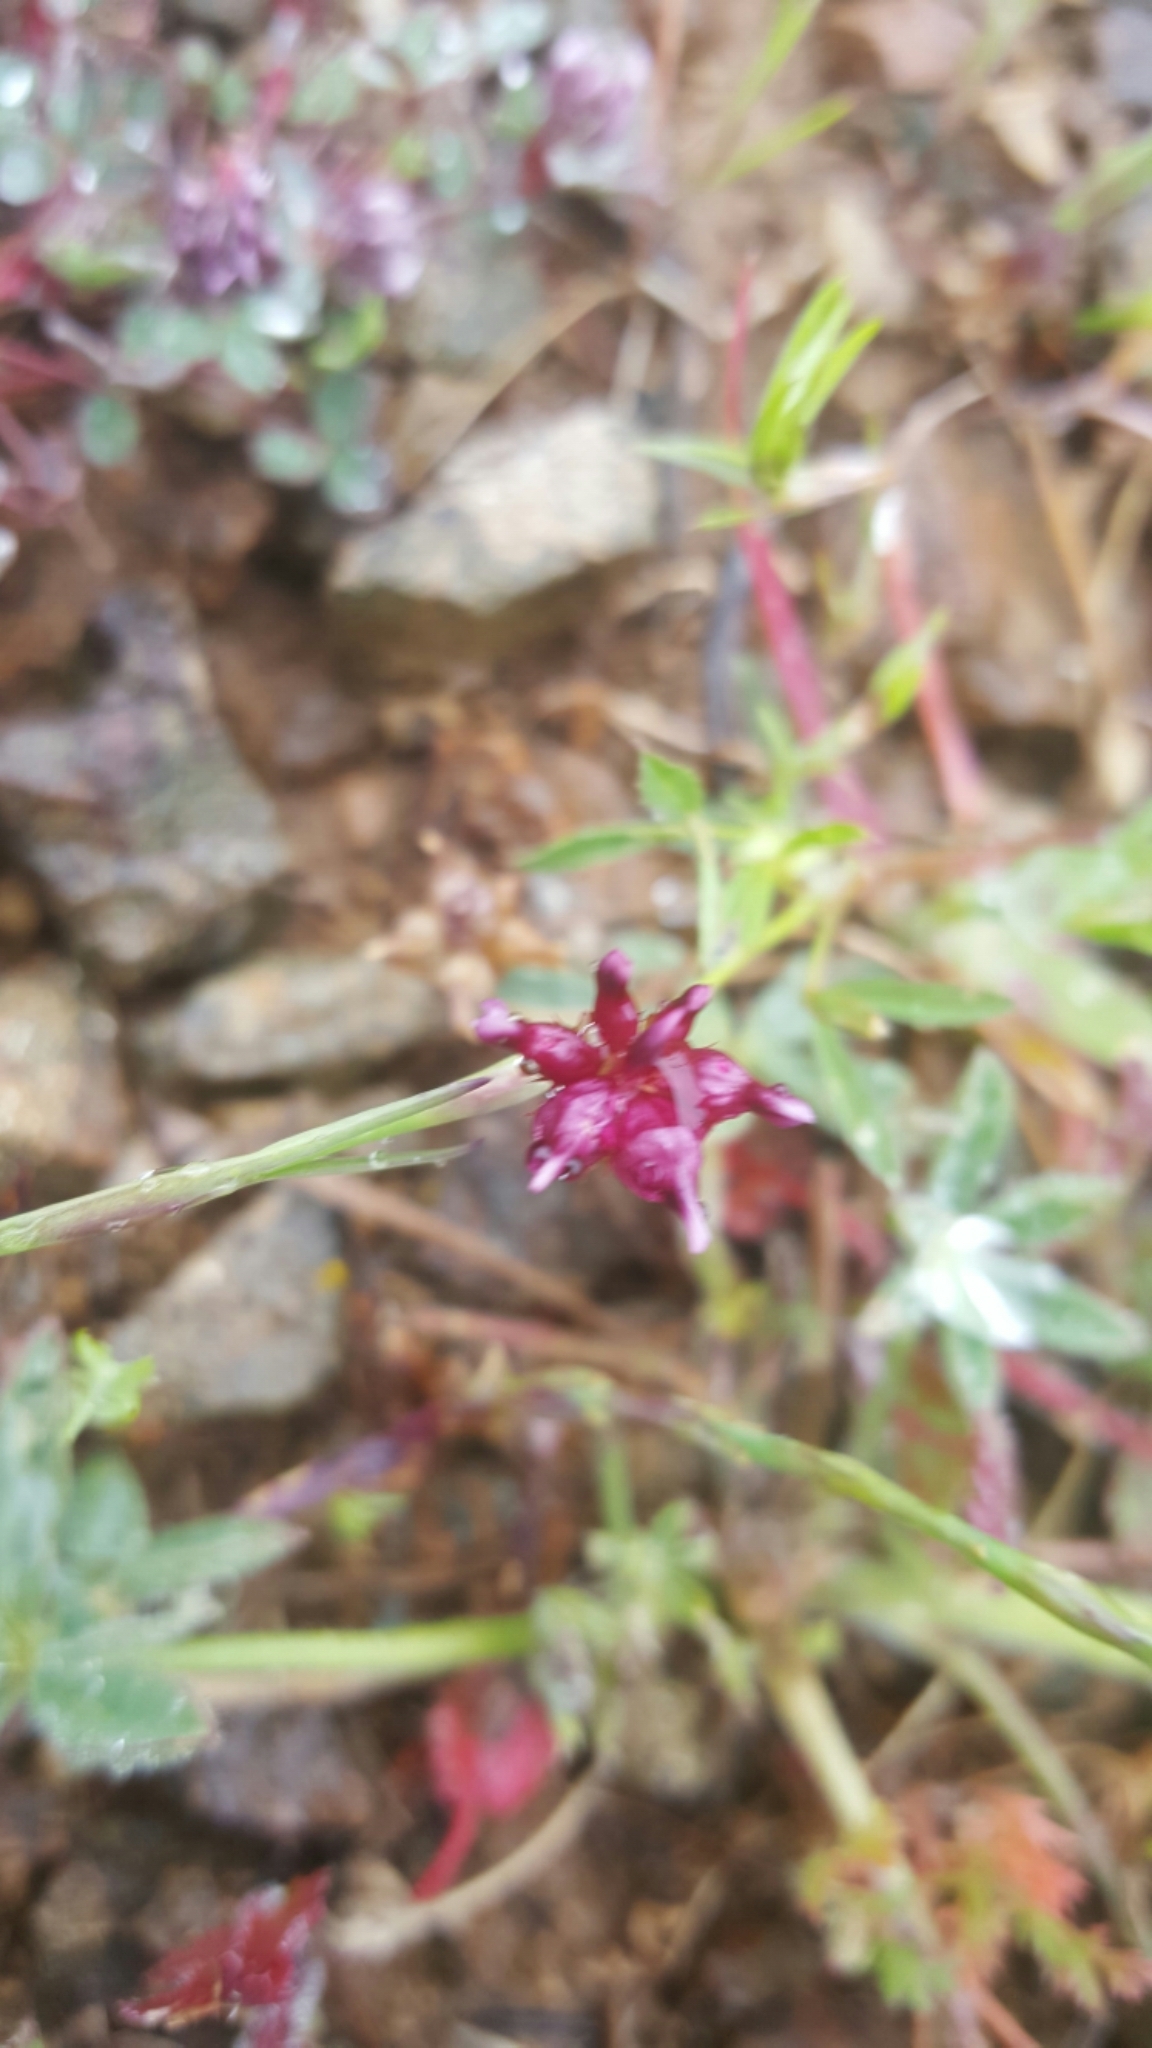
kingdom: Plantae
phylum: Tracheophyta
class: Magnoliopsida
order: Fabales
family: Fabaceae
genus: Trifolium
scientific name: Trifolium depauperatum
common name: Poverty clover
